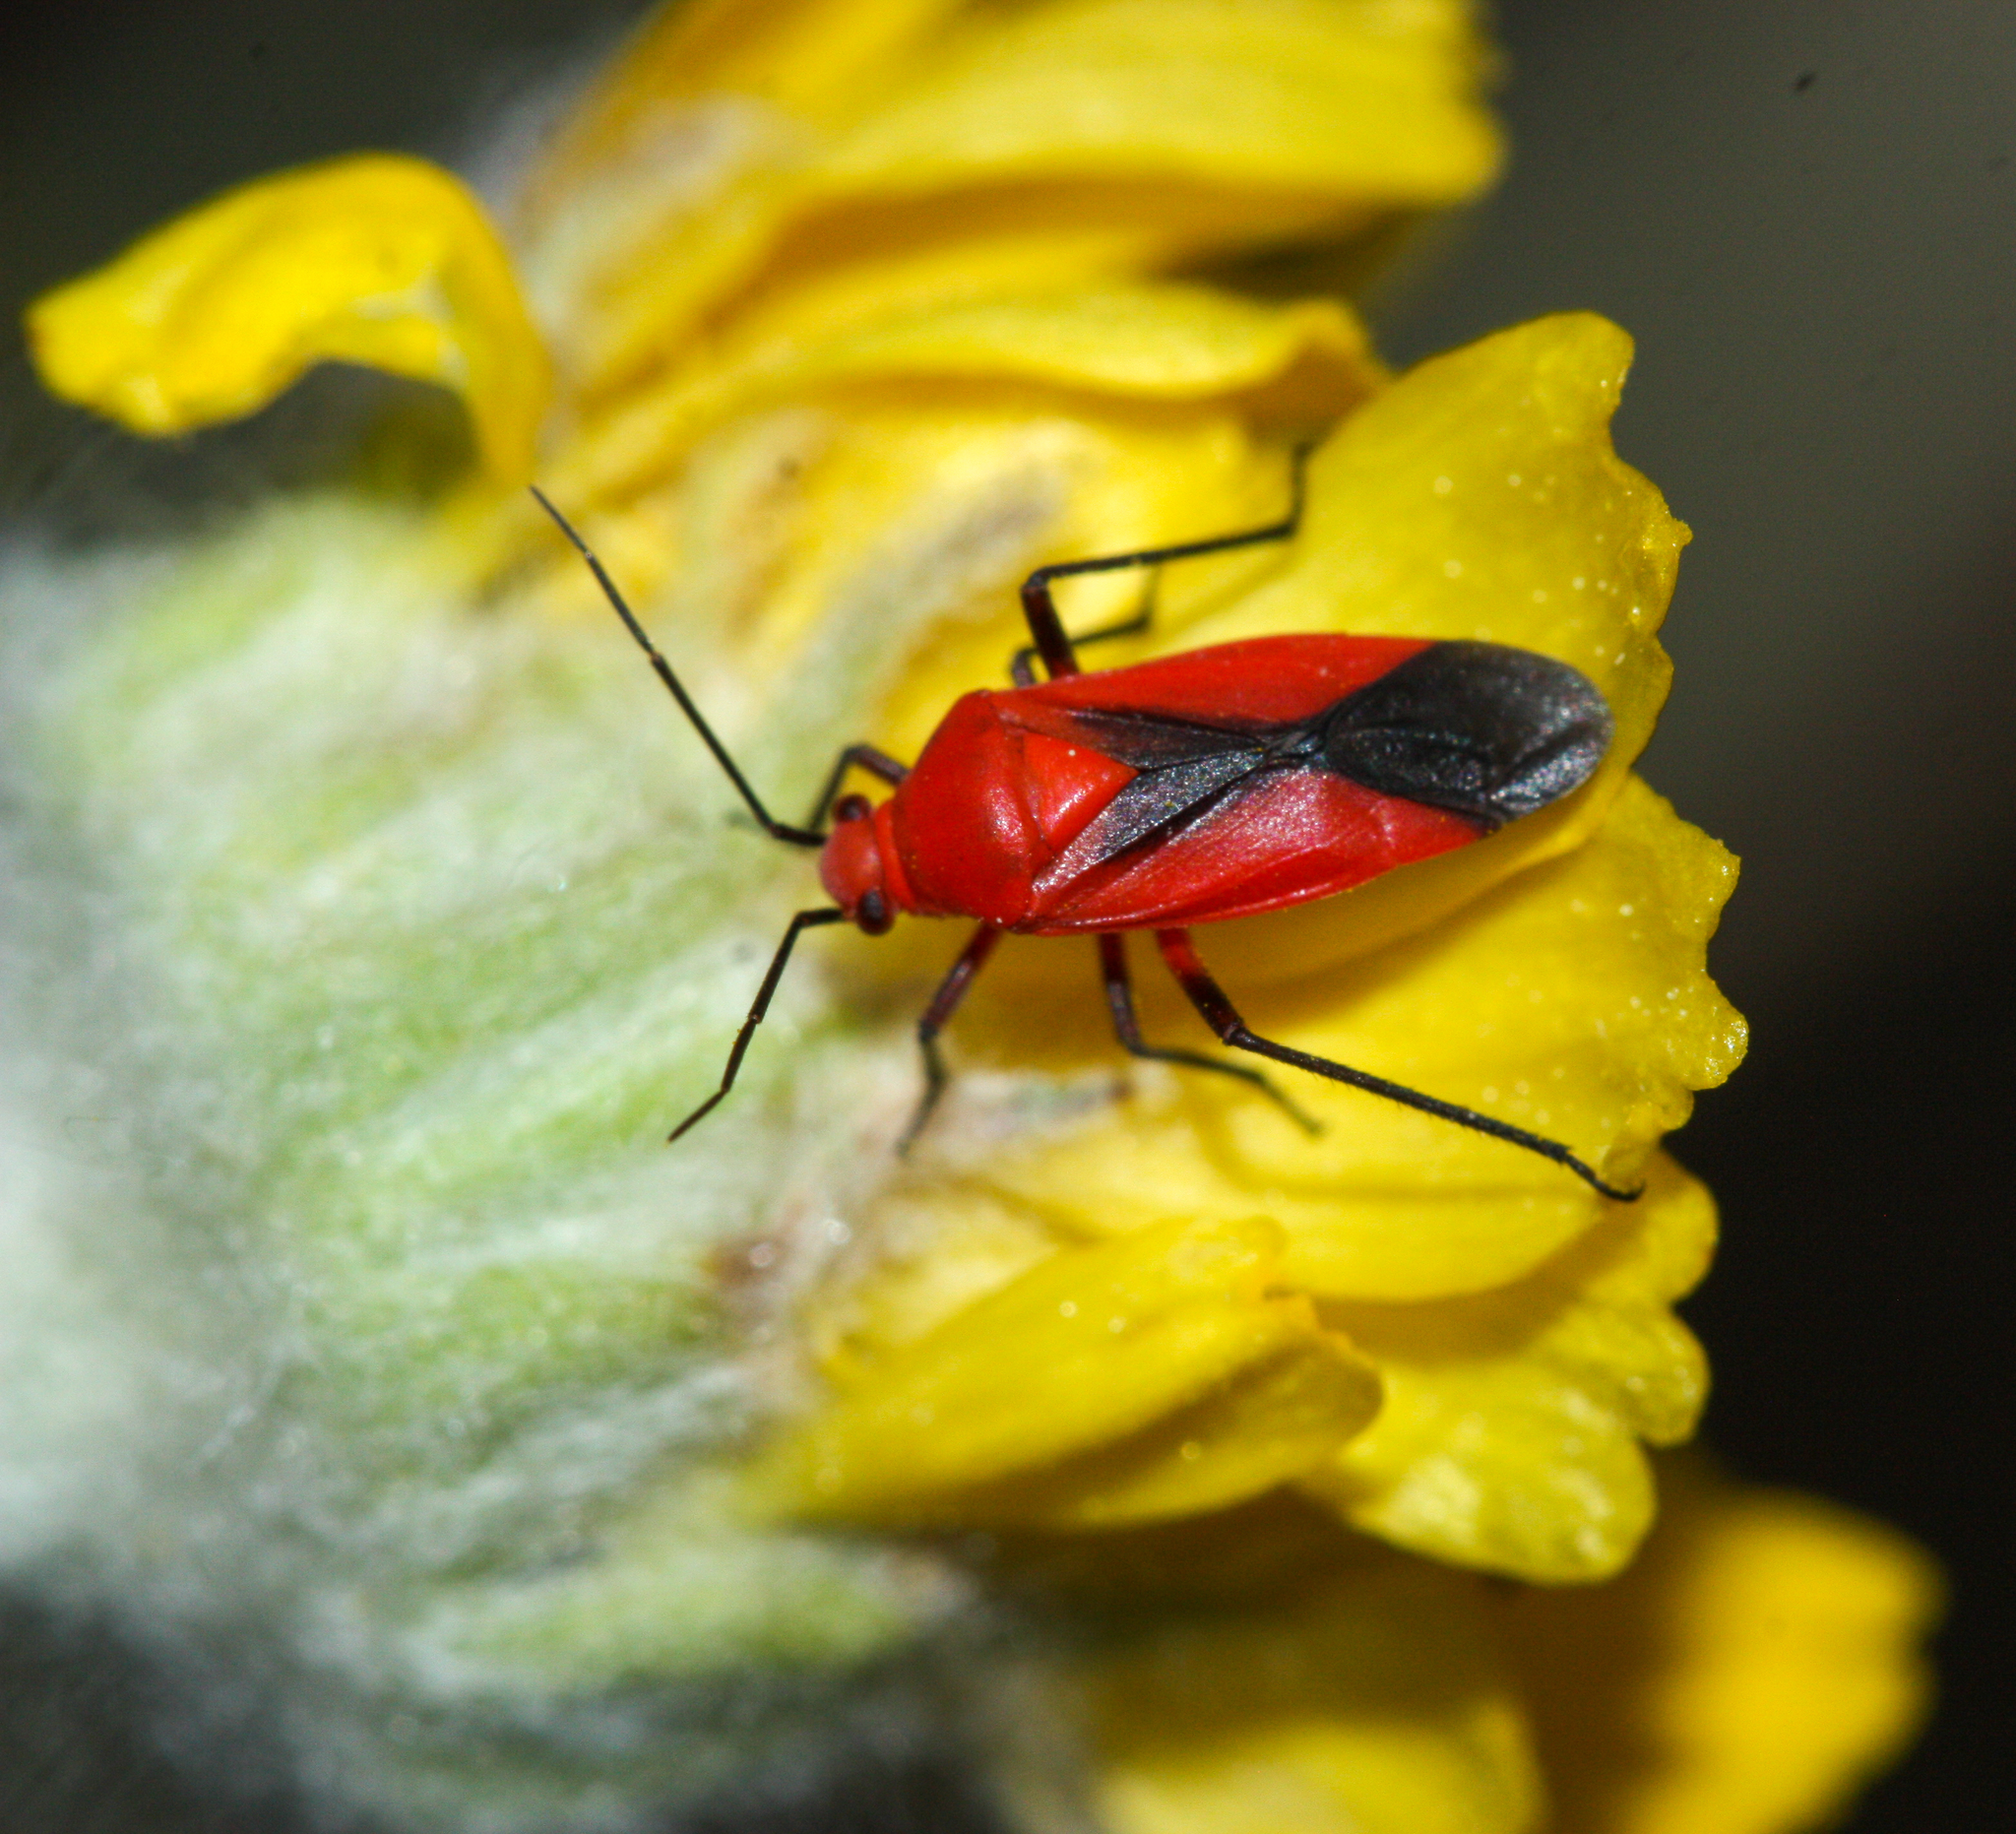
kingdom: Animalia
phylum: Arthropoda
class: Insecta
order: Hemiptera
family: Miridae
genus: Oncerometopus
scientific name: Oncerometopus nigriclavus
